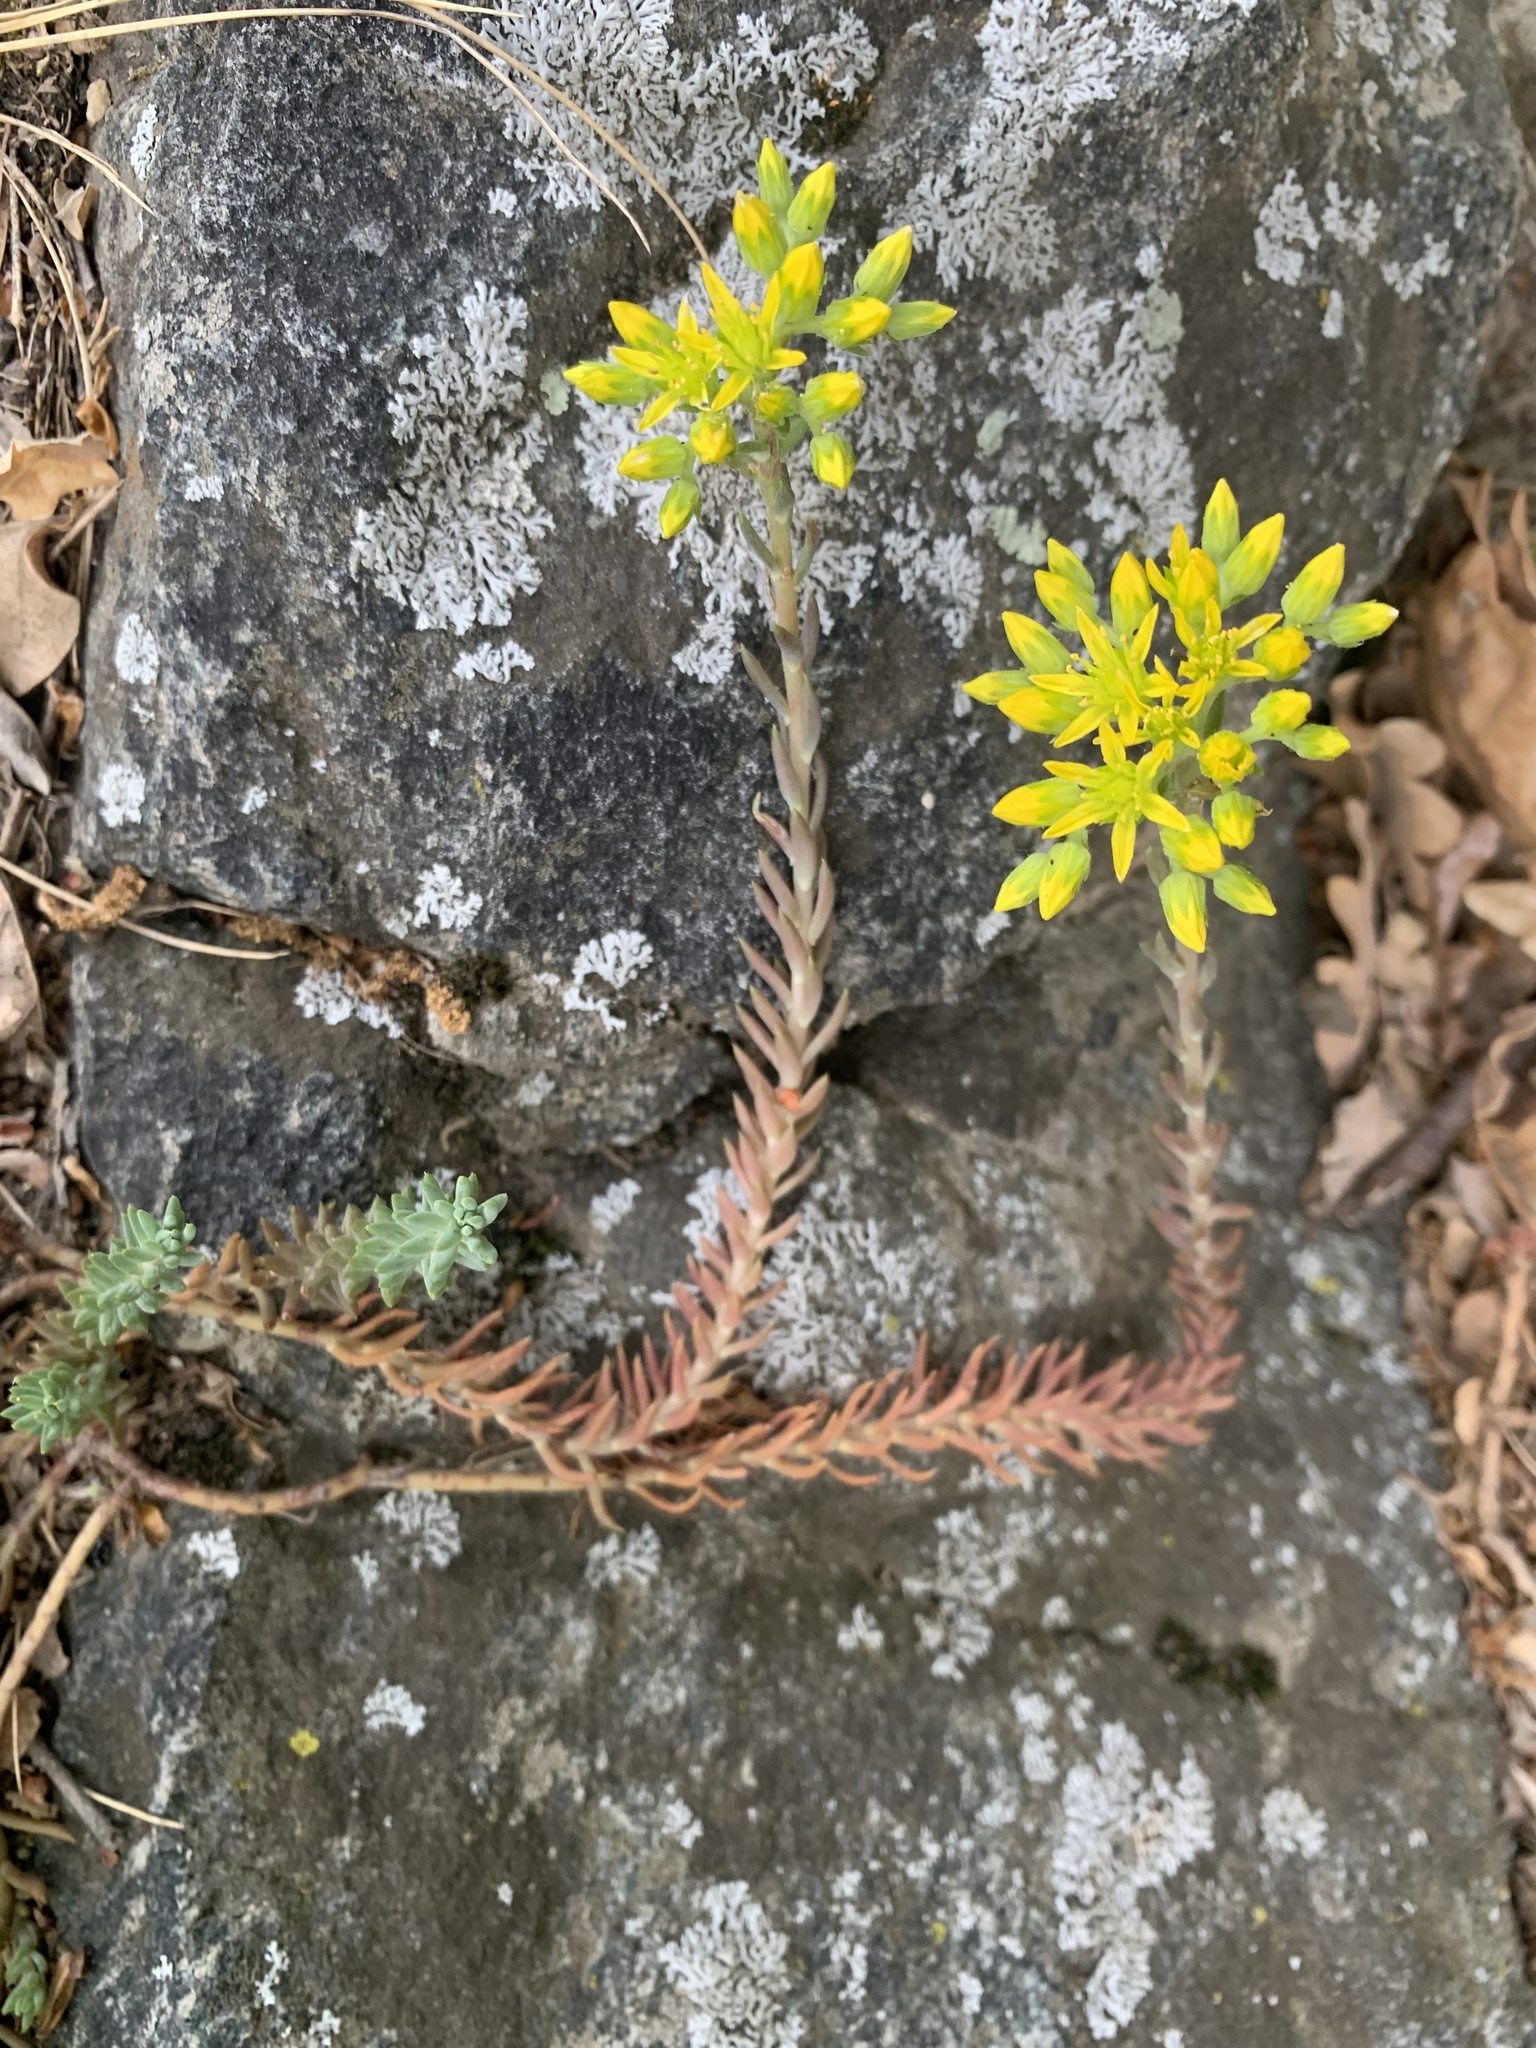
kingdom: Plantae
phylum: Tracheophyta
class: Magnoliopsida
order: Saxifragales
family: Crassulaceae
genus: Petrosedum
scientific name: Petrosedum montanum
